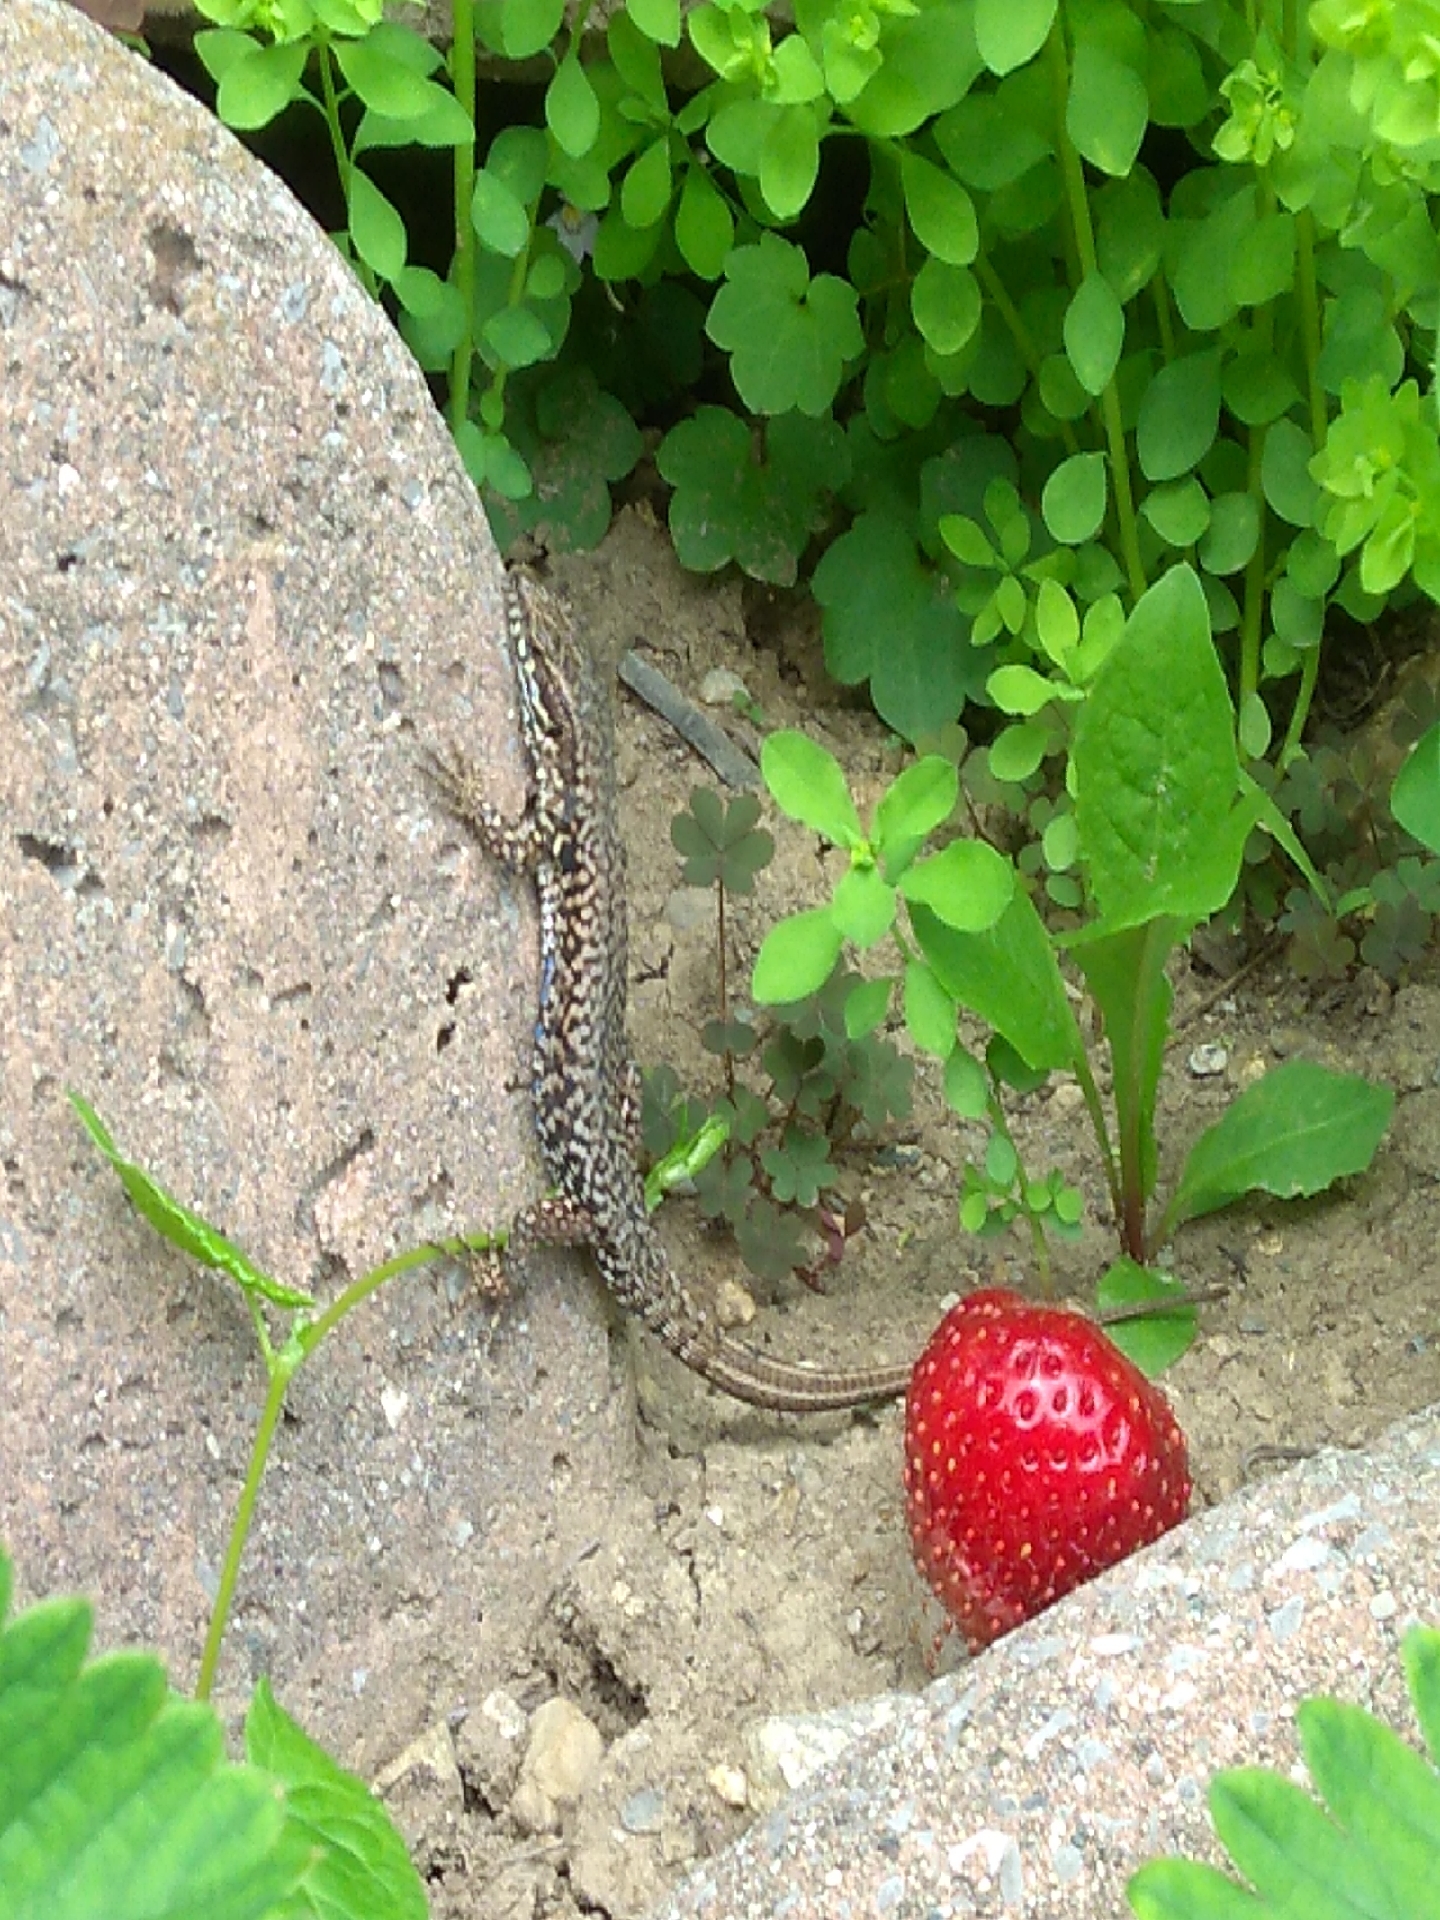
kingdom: Animalia
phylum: Chordata
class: Squamata
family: Lacertidae
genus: Podarcis
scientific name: Podarcis muralis
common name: Common wall lizard
